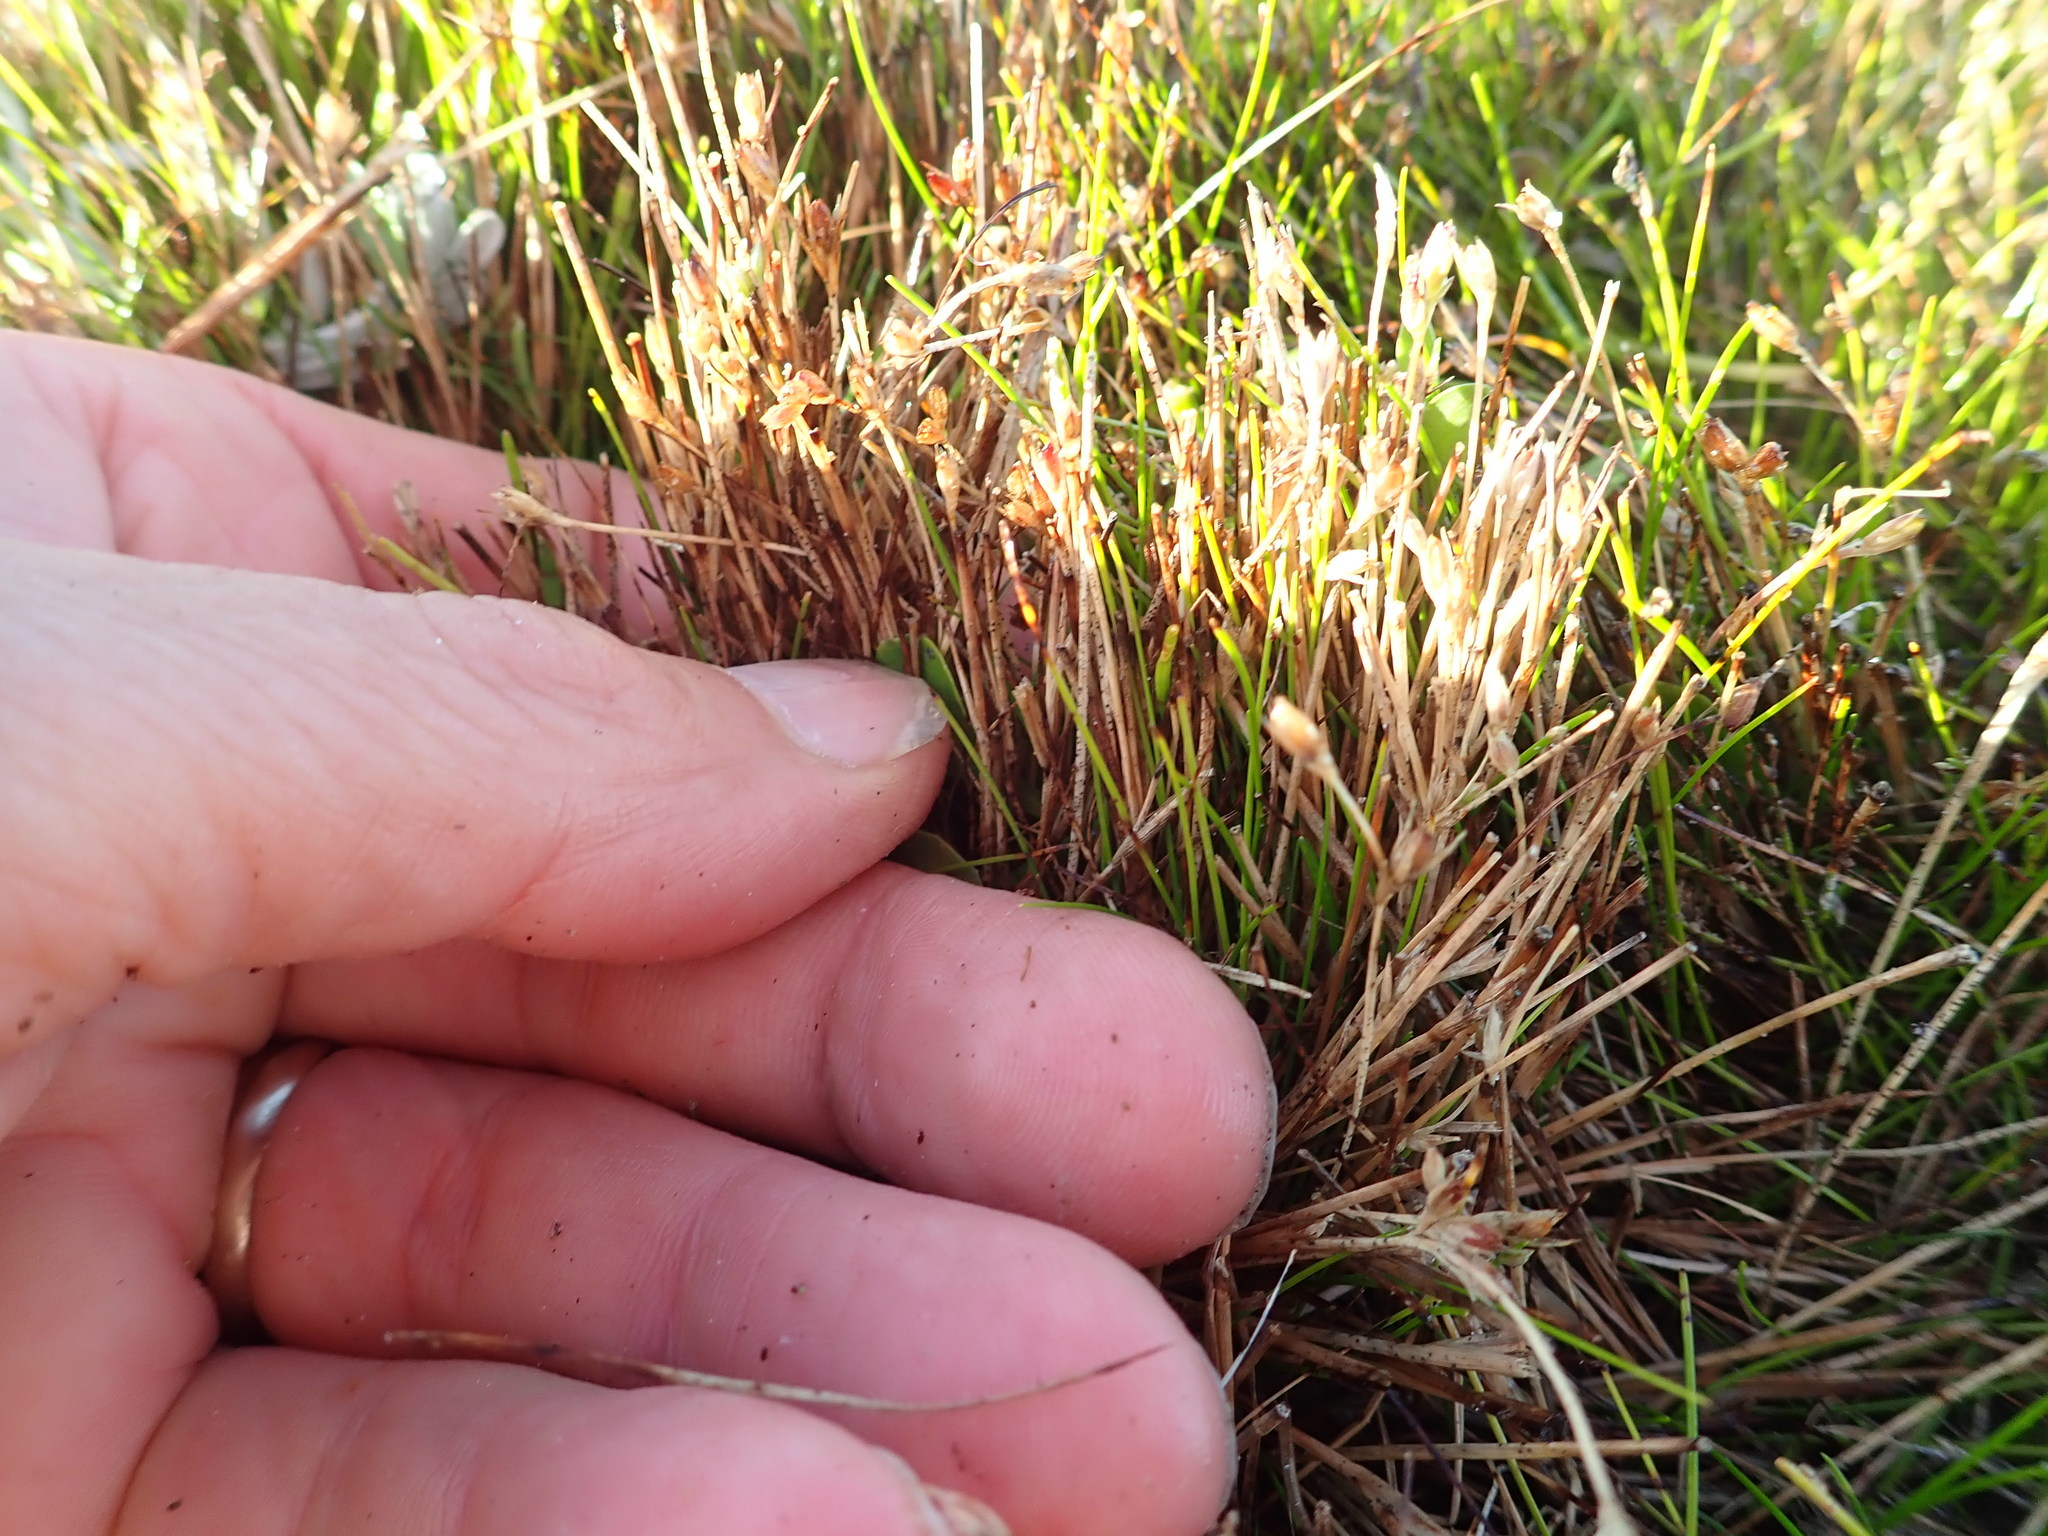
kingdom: Plantae
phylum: Tracheophyta
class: Liliopsida
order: Poales
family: Juncaceae
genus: Juncus
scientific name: Juncus bufonius
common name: Toad rush
